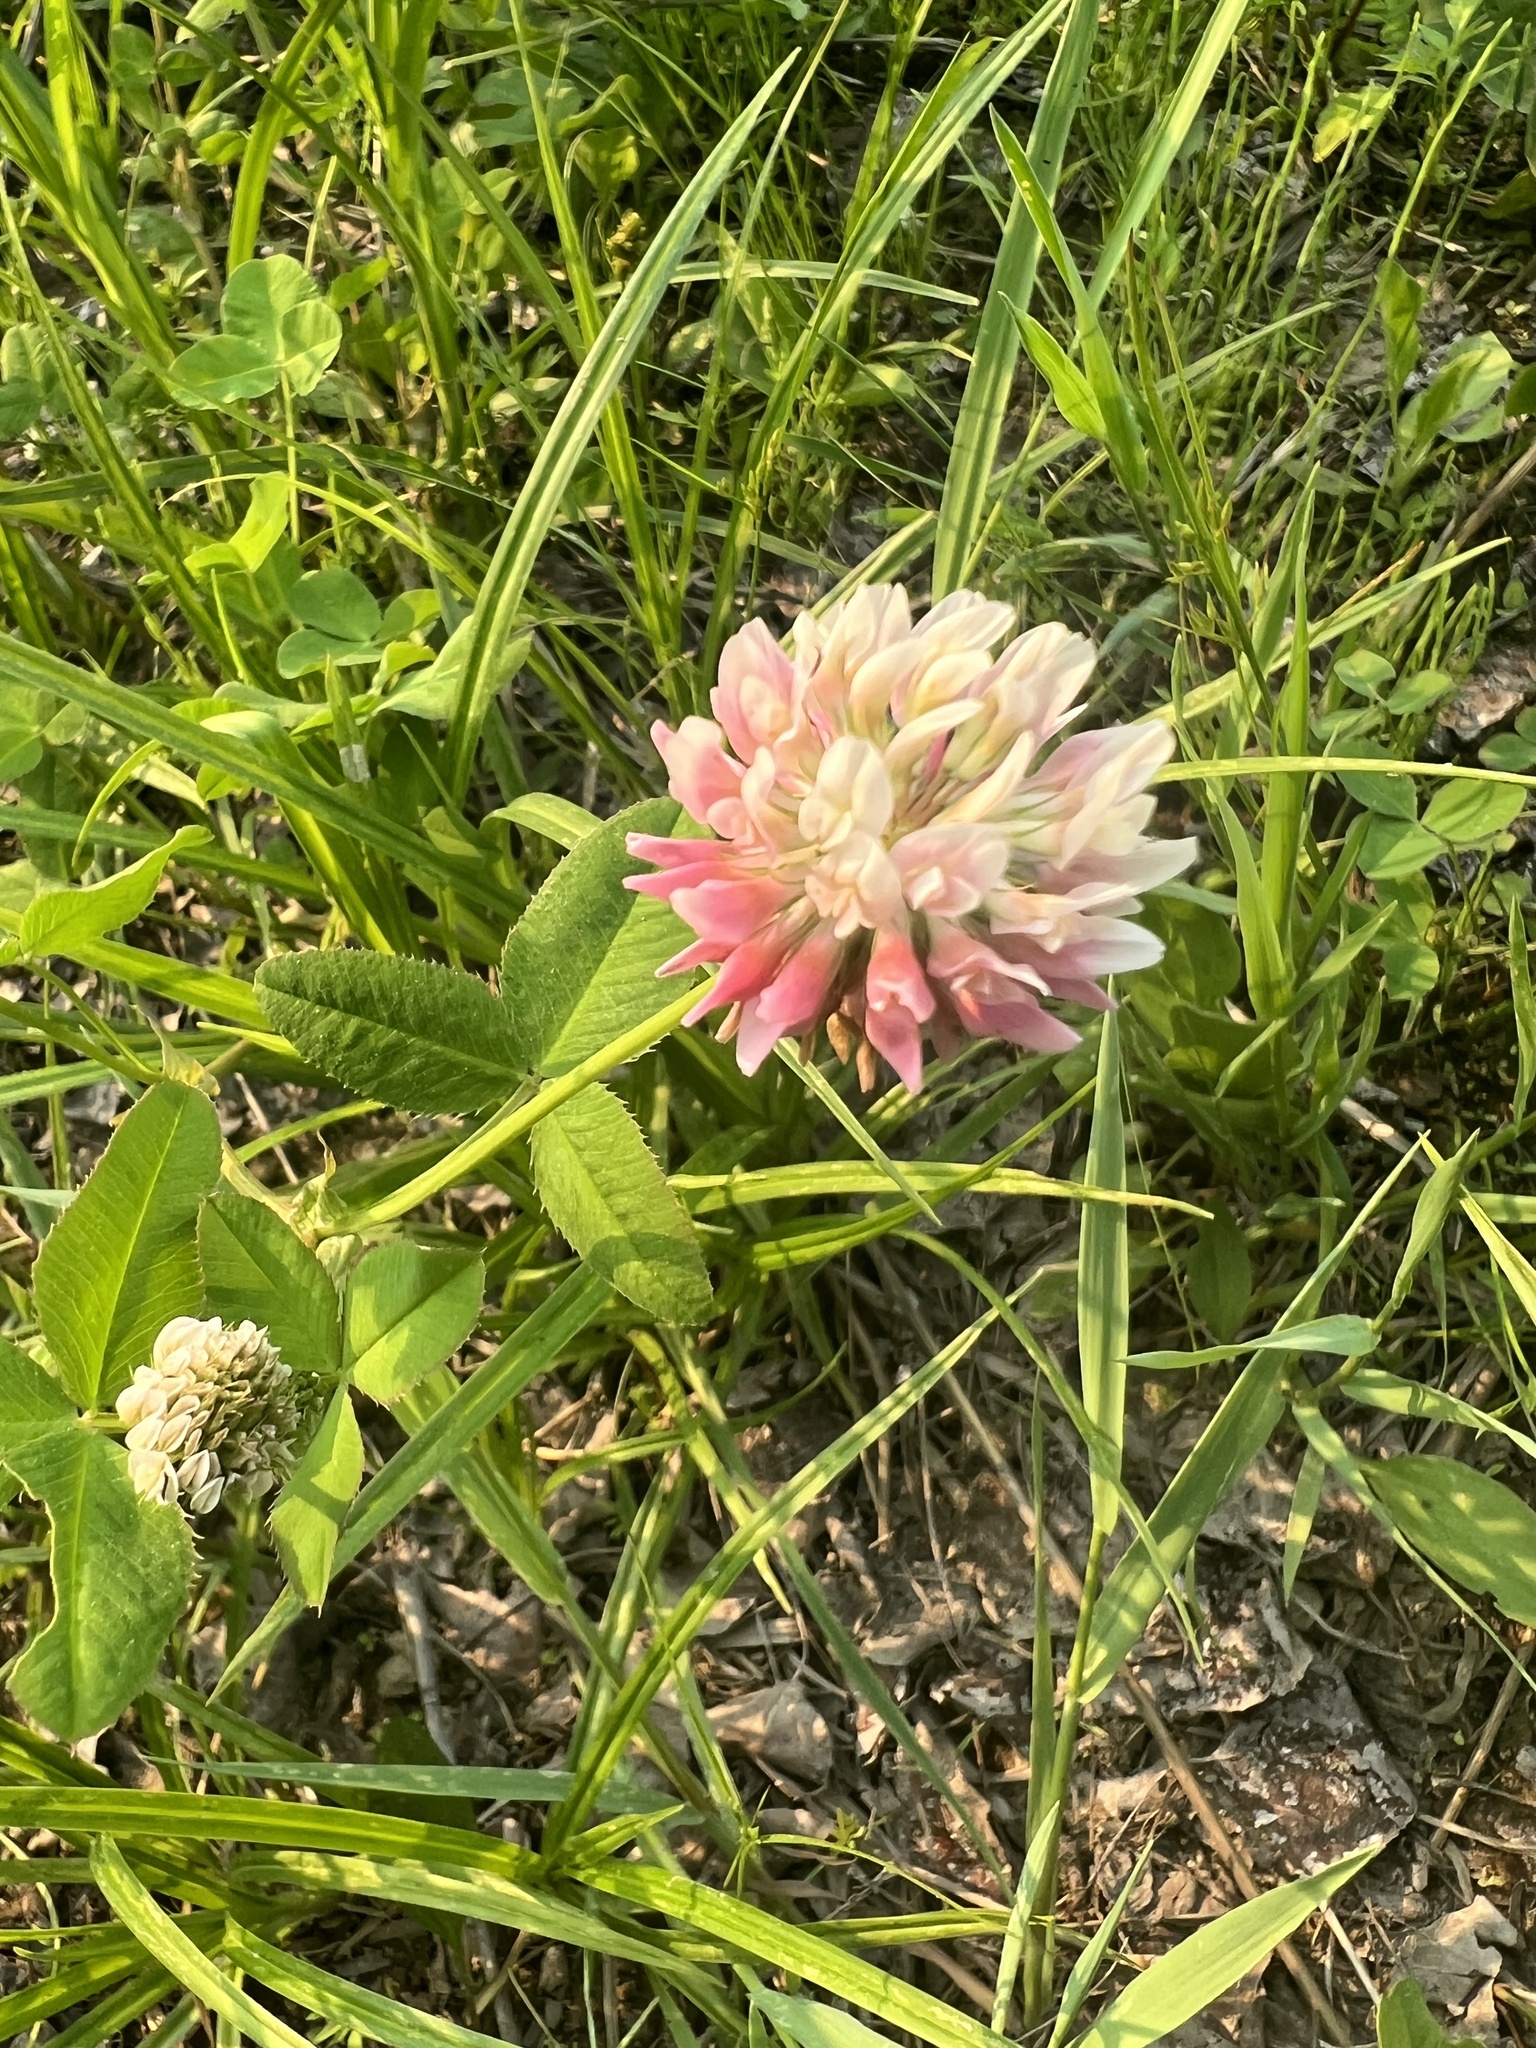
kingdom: Plantae
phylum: Tracheophyta
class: Magnoliopsida
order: Fabales
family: Fabaceae
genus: Trifolium
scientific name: Trifolium hybridum
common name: Alsike clover
